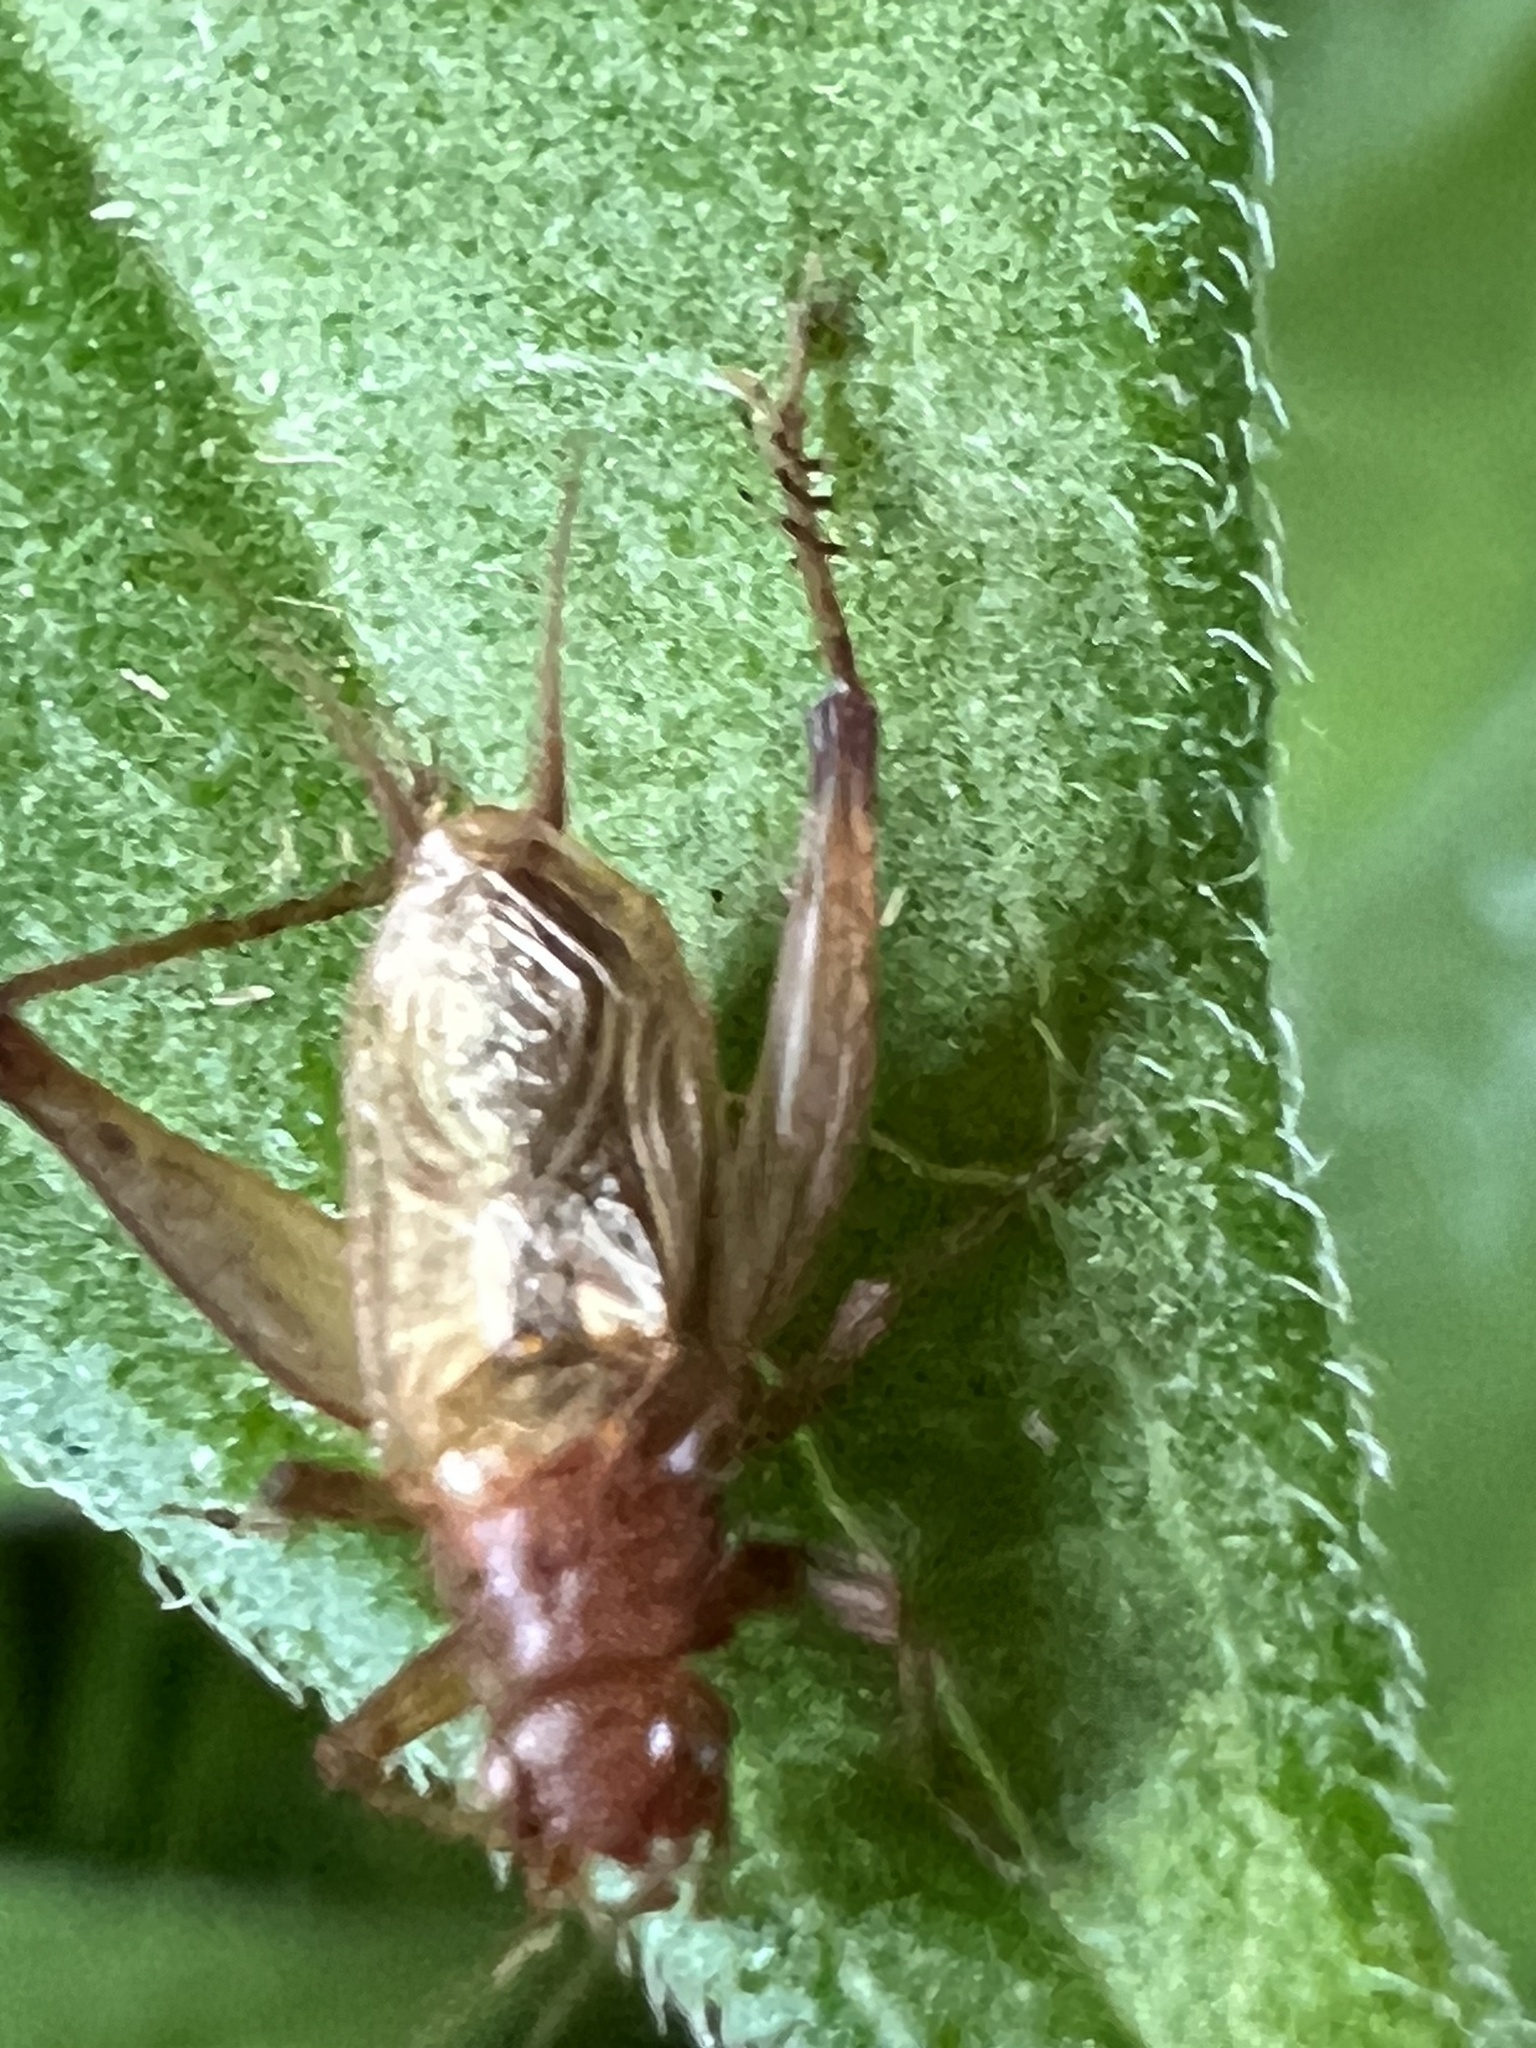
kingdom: Animalia
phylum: Arthropoda
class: Insecta
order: Orthoptera
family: Trigonidiidae
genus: Anaxipha
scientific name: Anaxipha vernalis
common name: Spring trig
